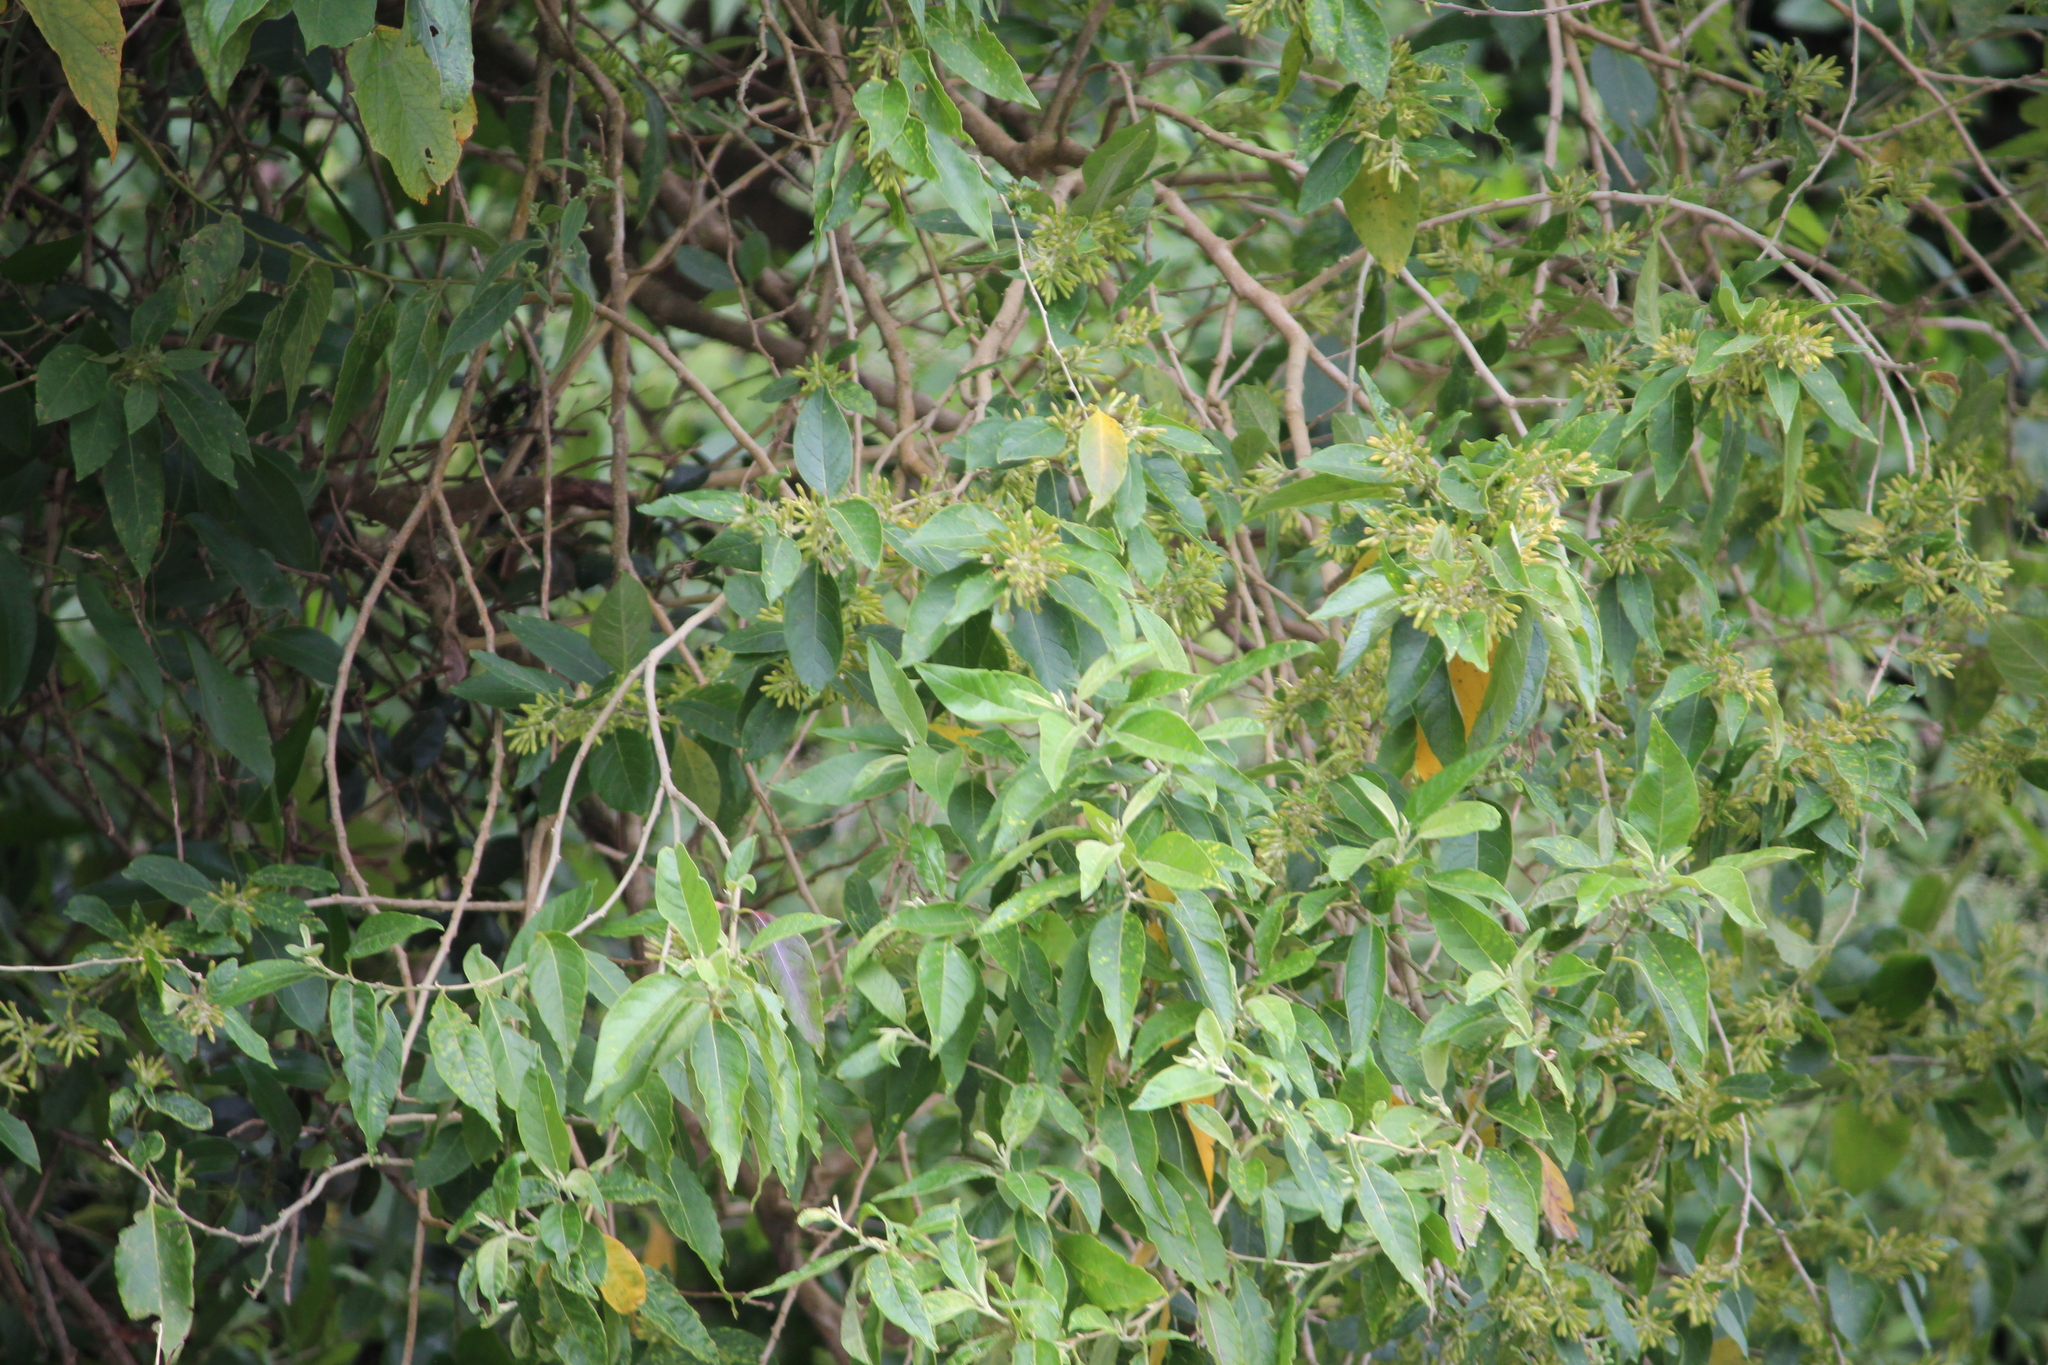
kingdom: Plantae
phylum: Tracheophyta
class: Magnoliopsida
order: Solanales
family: Solanaceae
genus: Cestrum
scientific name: Cestrum nocturnum
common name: Night jessamine
